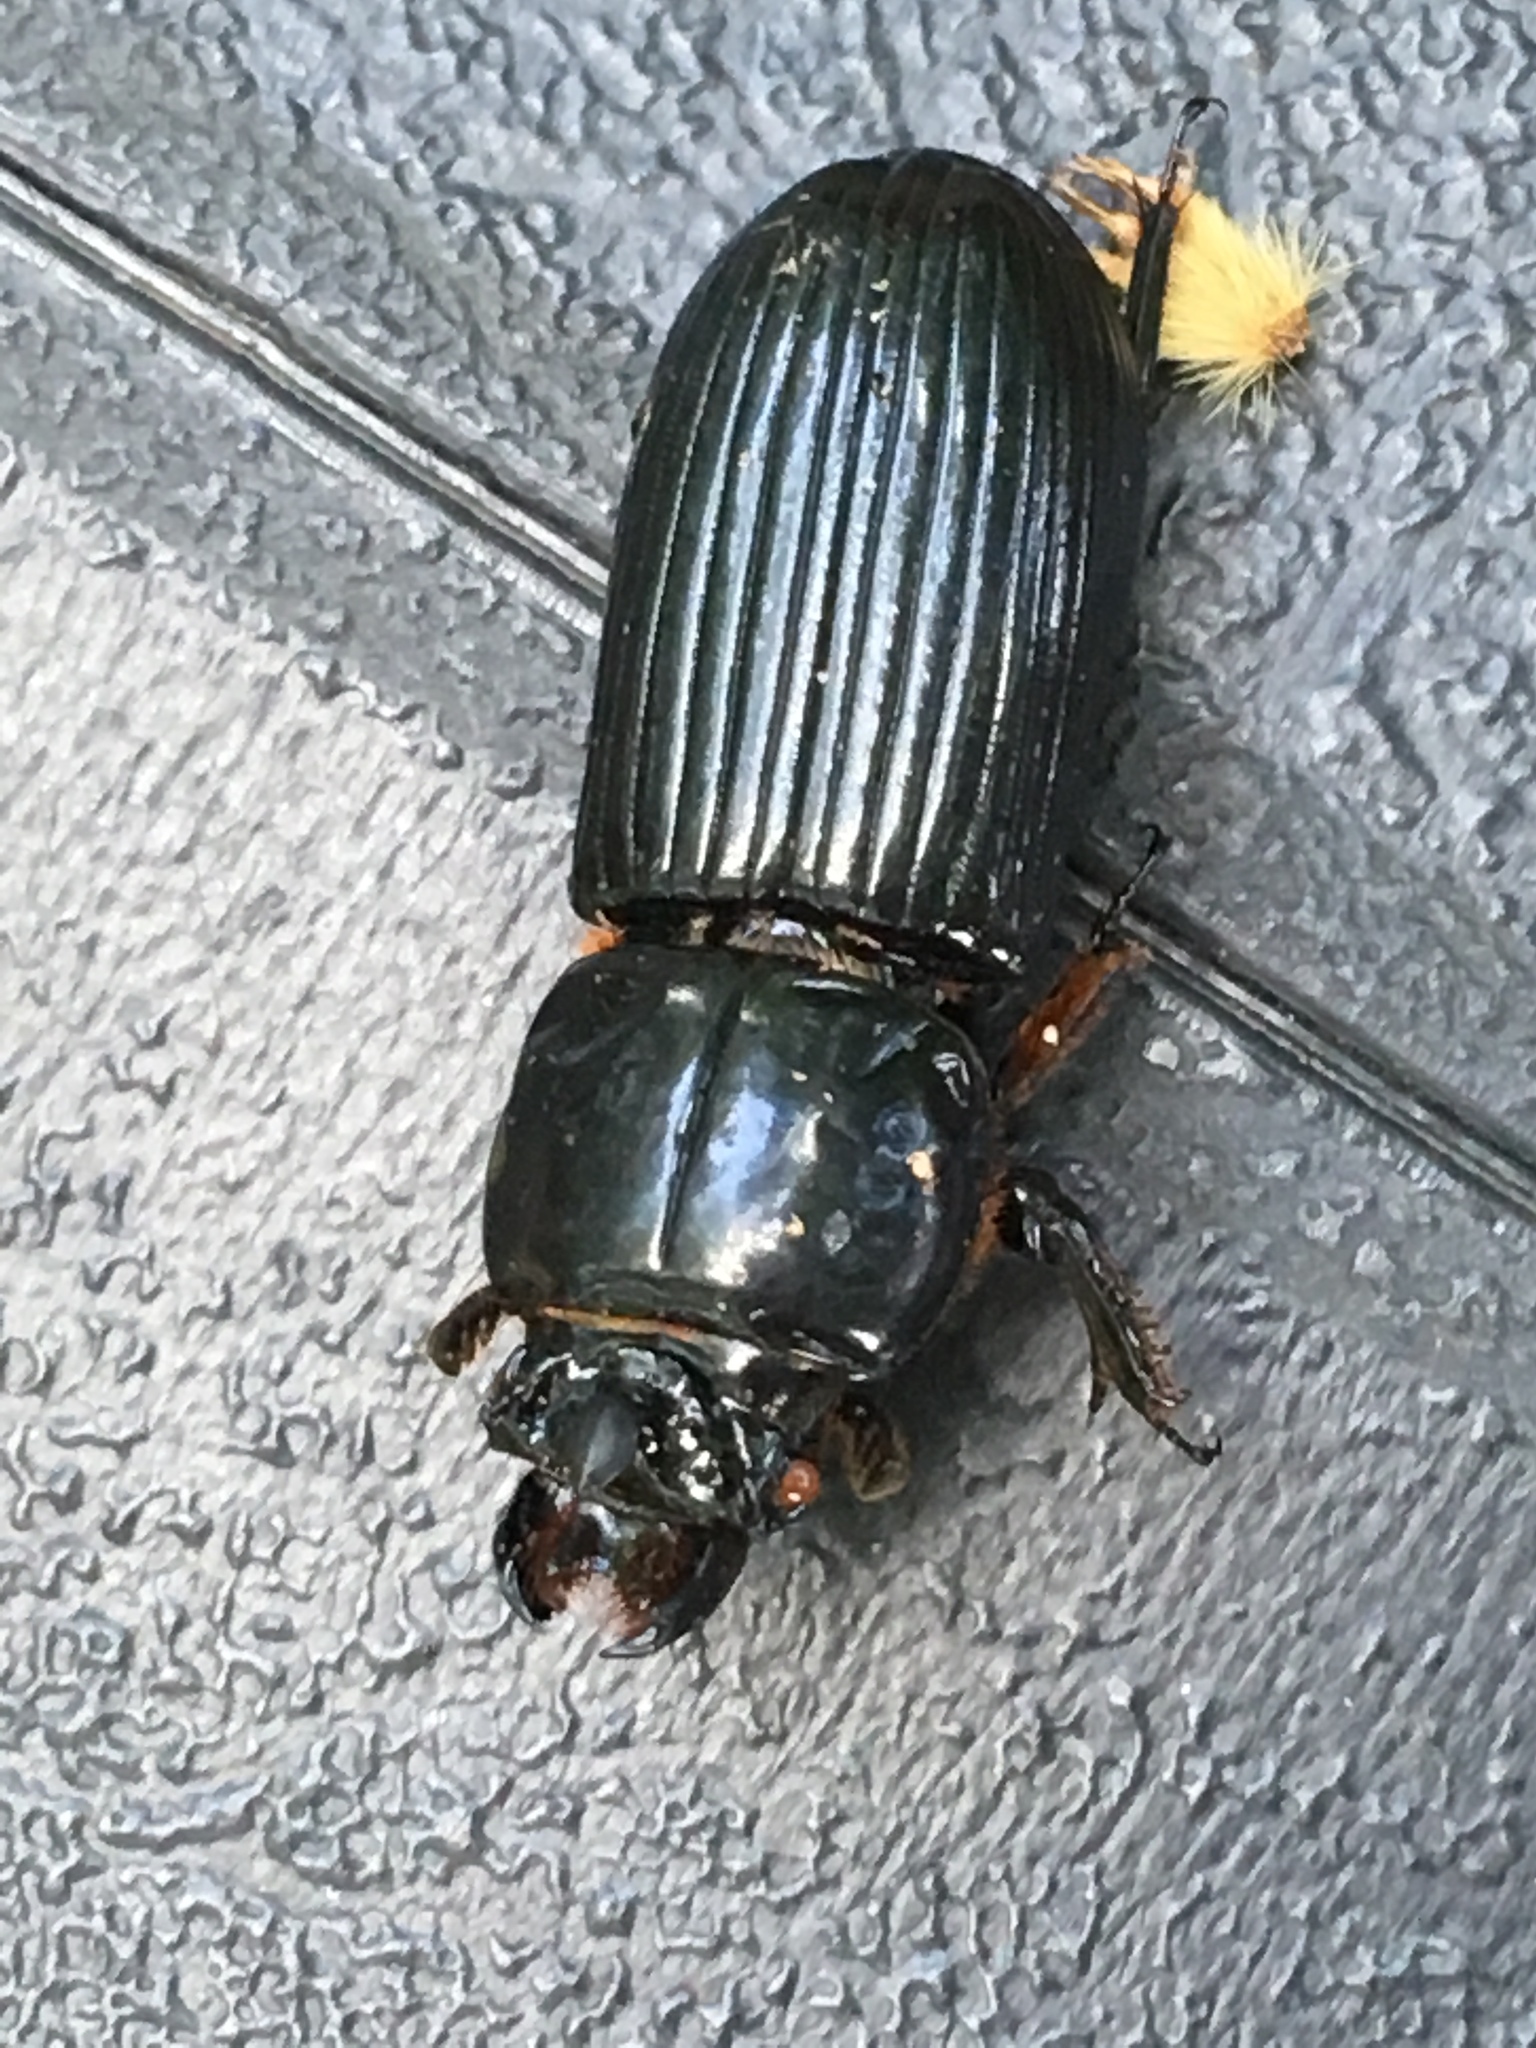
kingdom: Animalia
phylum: Arthropoda
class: Insecta
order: Coleoptera
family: Passalidae
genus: Odontotaenius
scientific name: Odontotaenius disjunctus
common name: Patent leather beetle
